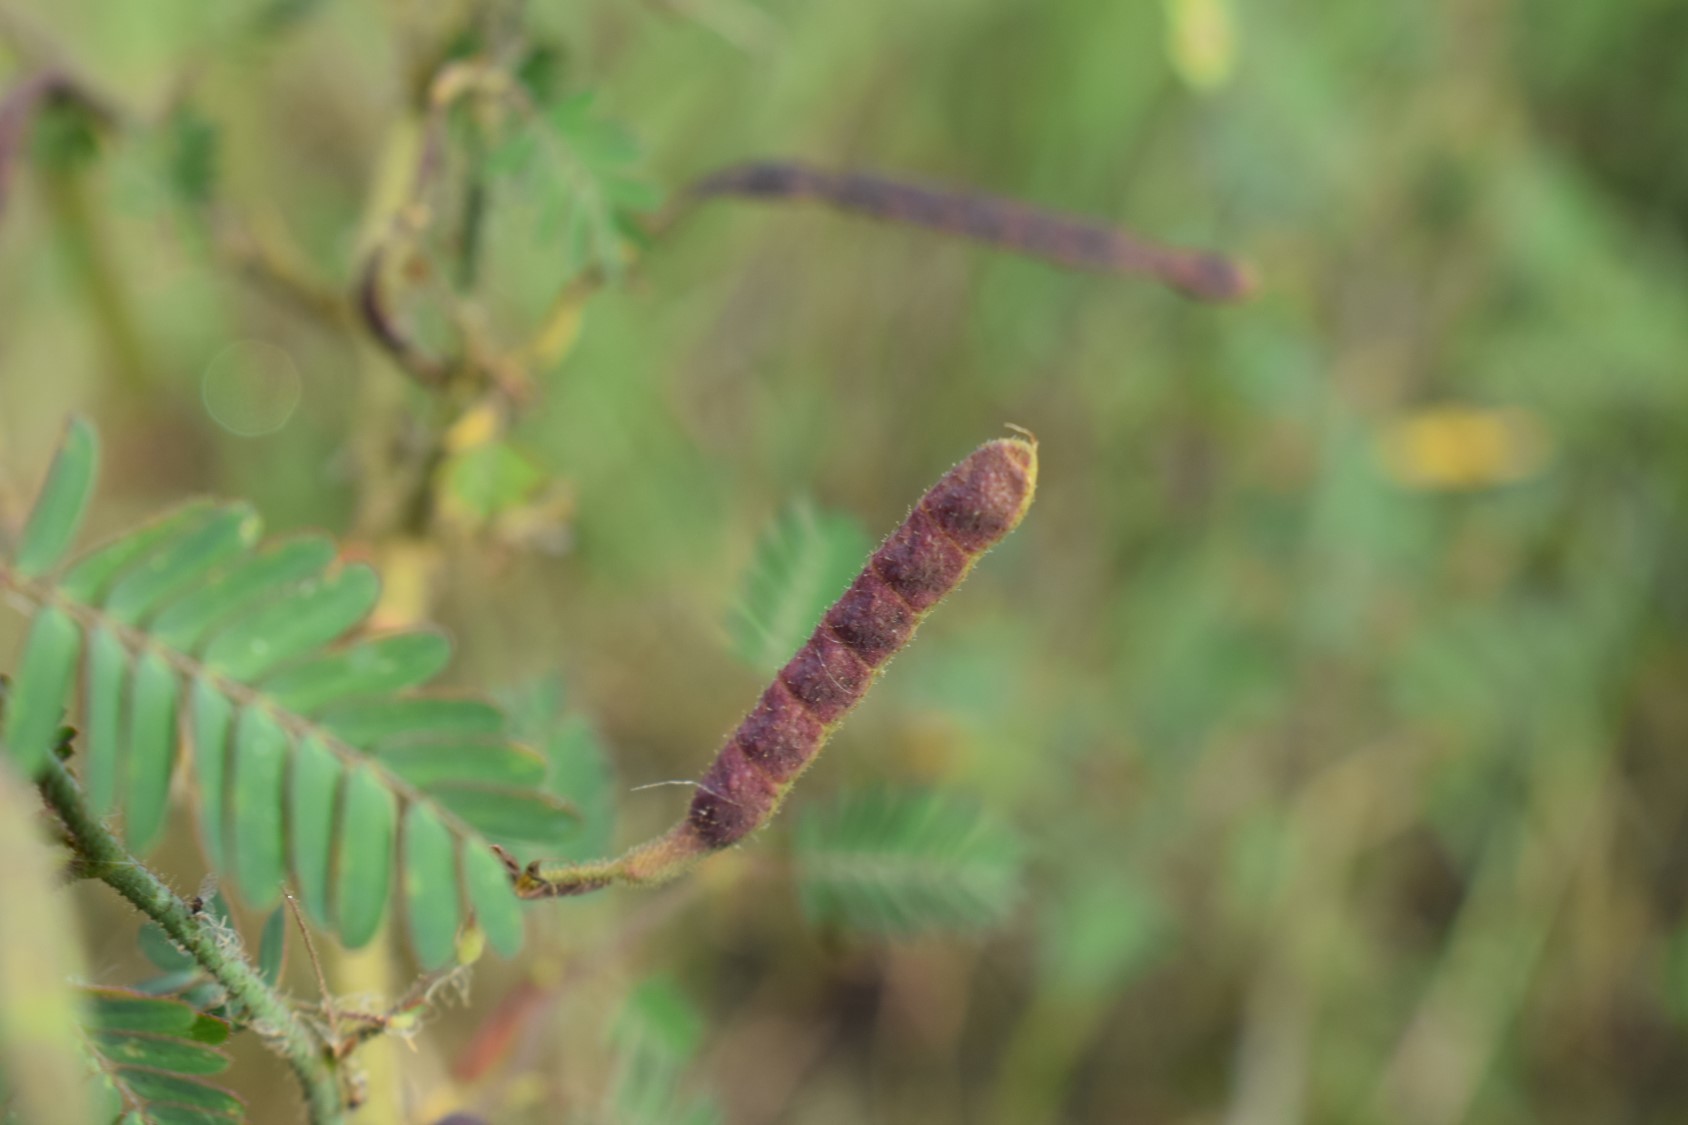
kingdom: Plantae
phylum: Tracheophyta
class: Magnoliopsida
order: Fabales
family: Fabaceae
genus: Aeschynomene
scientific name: Aeschynomene denticulata
